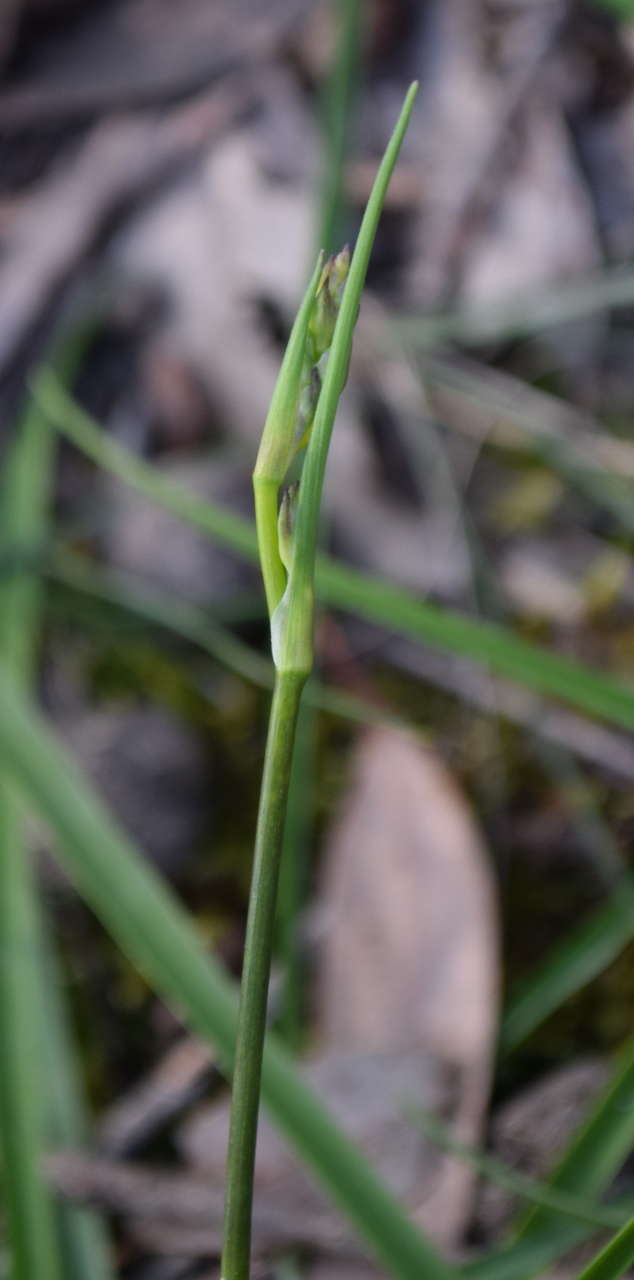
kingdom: Plantae
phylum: Tracheophyta
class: Liliopsida
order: Asparagales
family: Asparagaceae
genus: Arthropodium
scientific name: Arthropodium strictum
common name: Chocolate-lily
